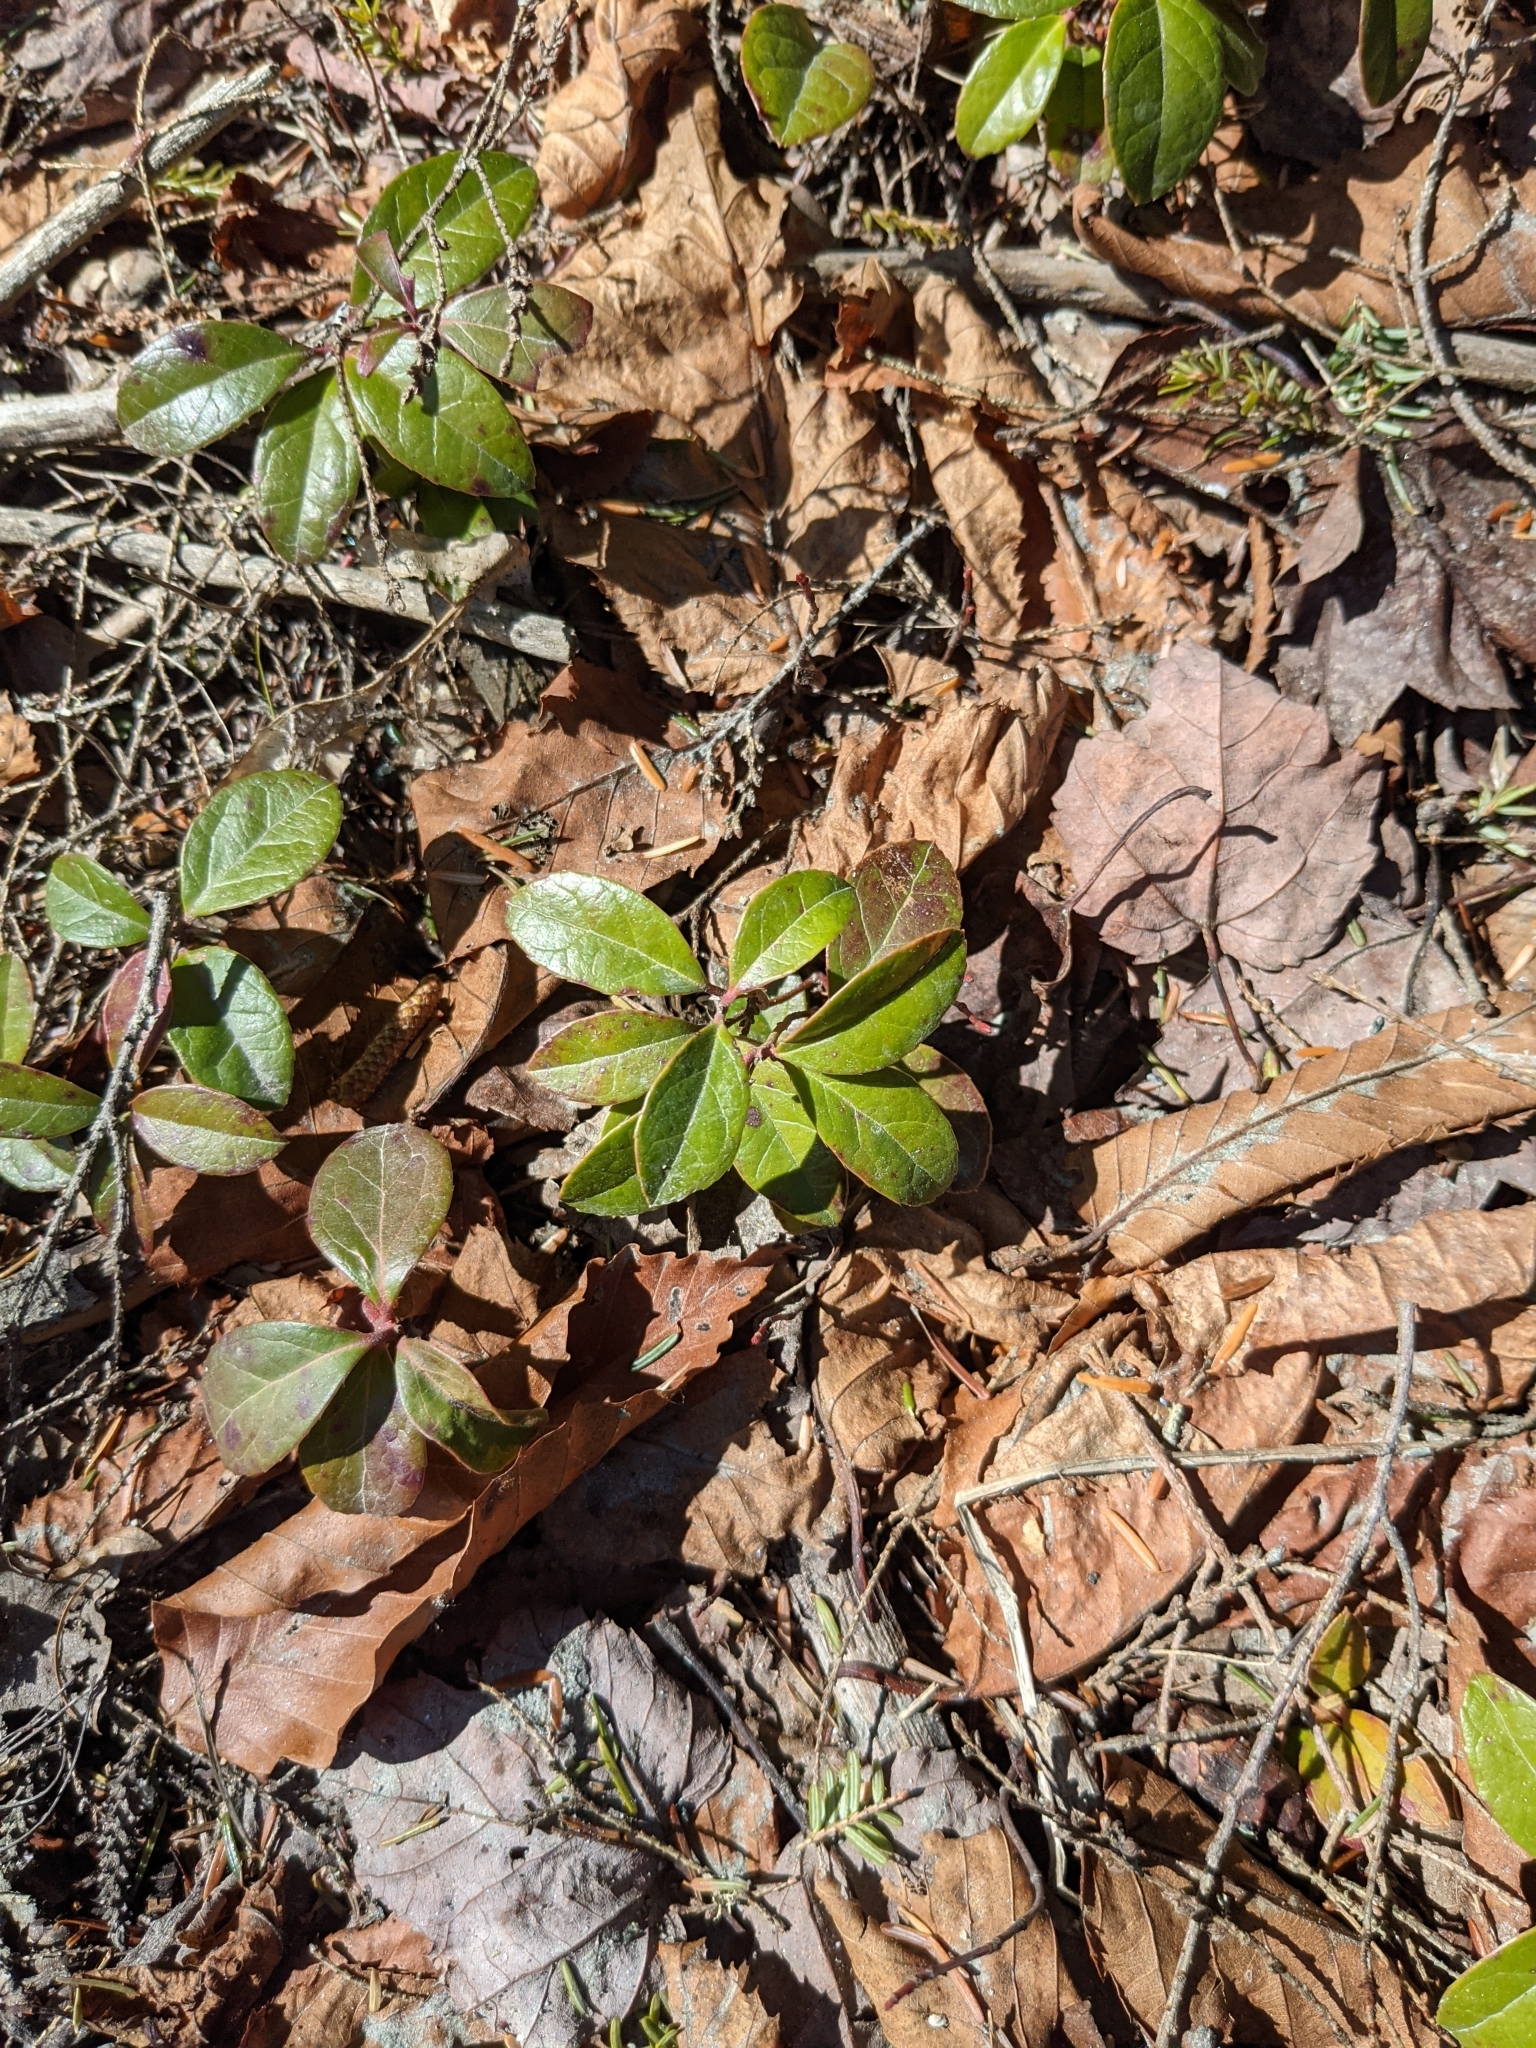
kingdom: Plantae
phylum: Tracheophyta
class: Magnoliopsida
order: Ericales
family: Ericaceae
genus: Gaultheria
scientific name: Gaultheria procumbens
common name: Checkerberry
